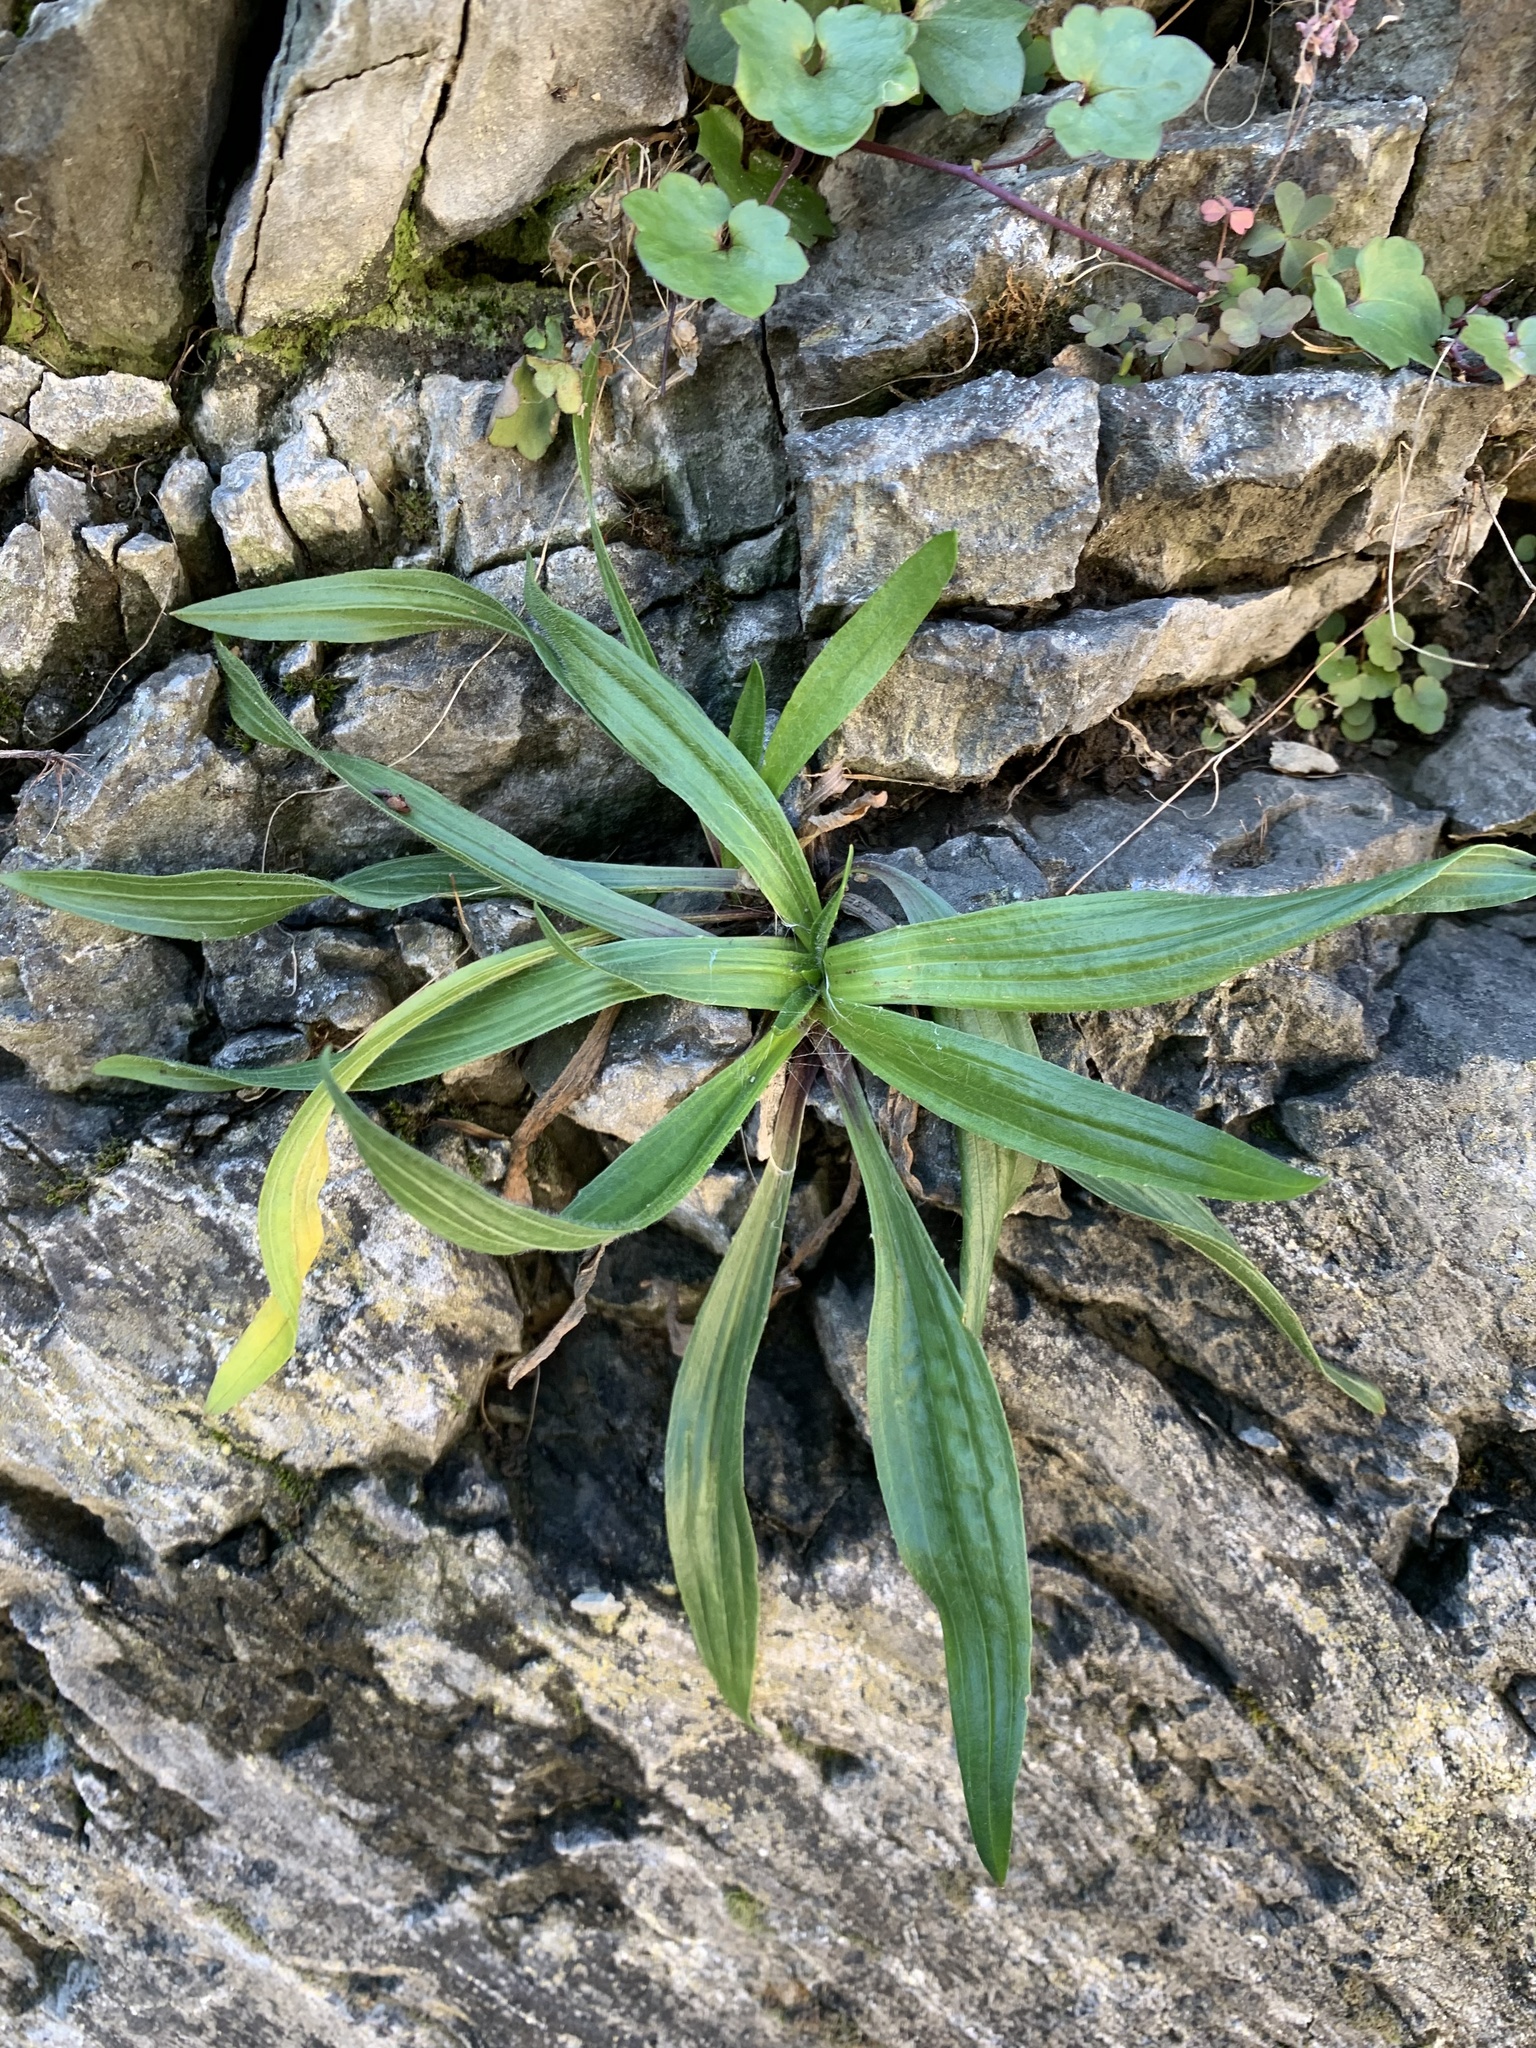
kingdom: Plantae
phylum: Tracheophyta
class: Magnoliopsida
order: Lamiales
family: Plantaginaceae
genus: Plantago
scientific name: Plantago lanceolata
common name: Ribwort plantain
